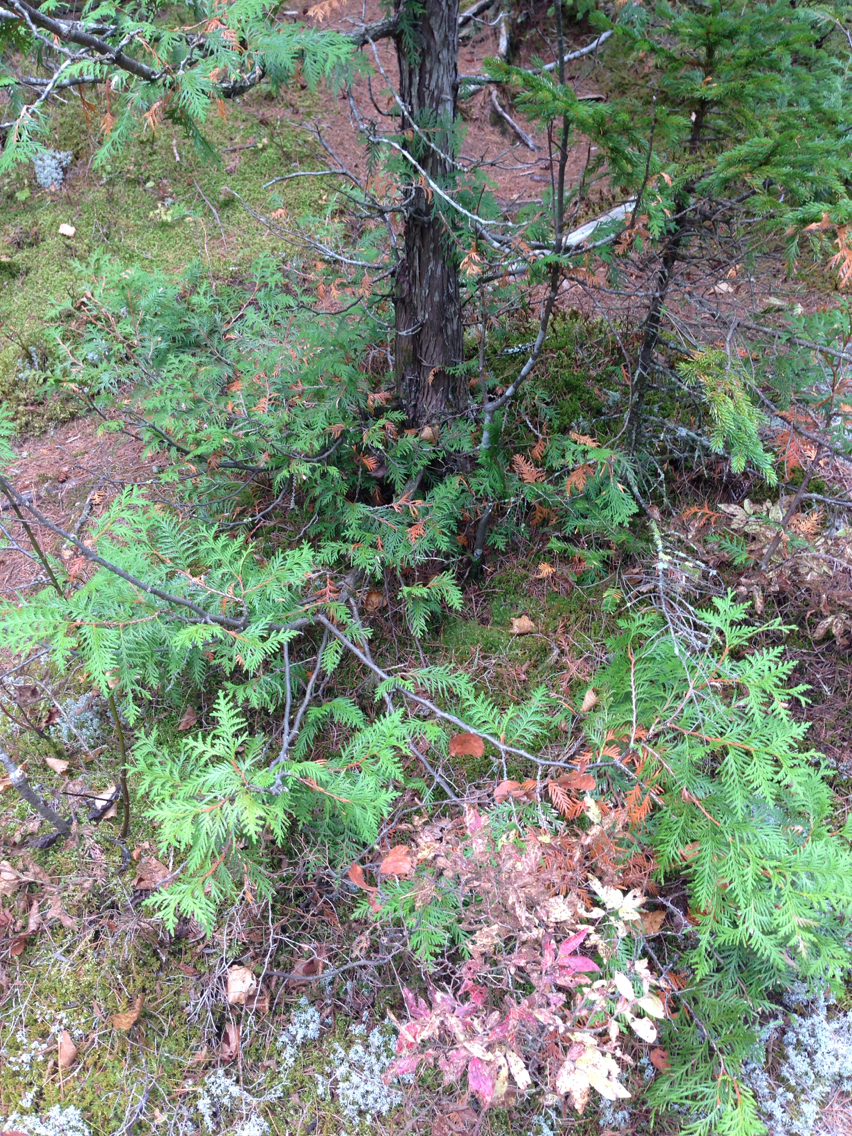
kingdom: Plantae
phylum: Tracheophyta
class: Pinopsida
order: Pinales
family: Cupressaceae
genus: Thuja
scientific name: Thuja occidentalis
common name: Northern white-cedar
